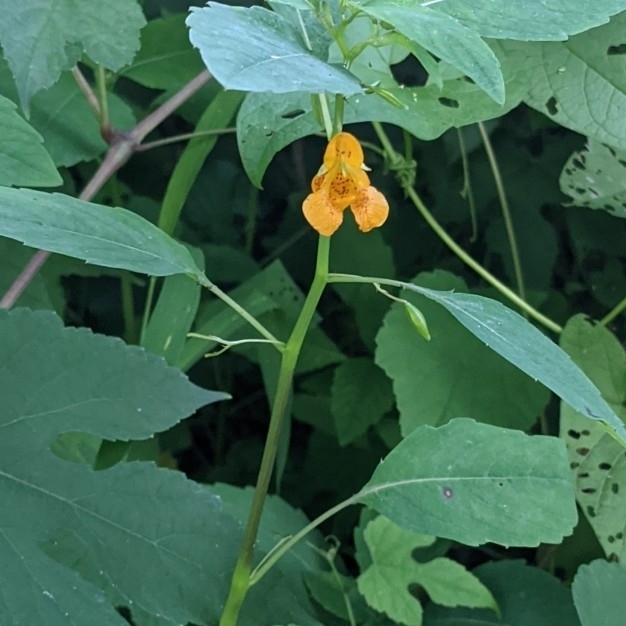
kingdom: Plantae
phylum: Tracheophyta
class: Magnoliopsida
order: Ericales
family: Balsaminaceae
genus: Impatiens
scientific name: Impatiens capensis
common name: Orange balsam
